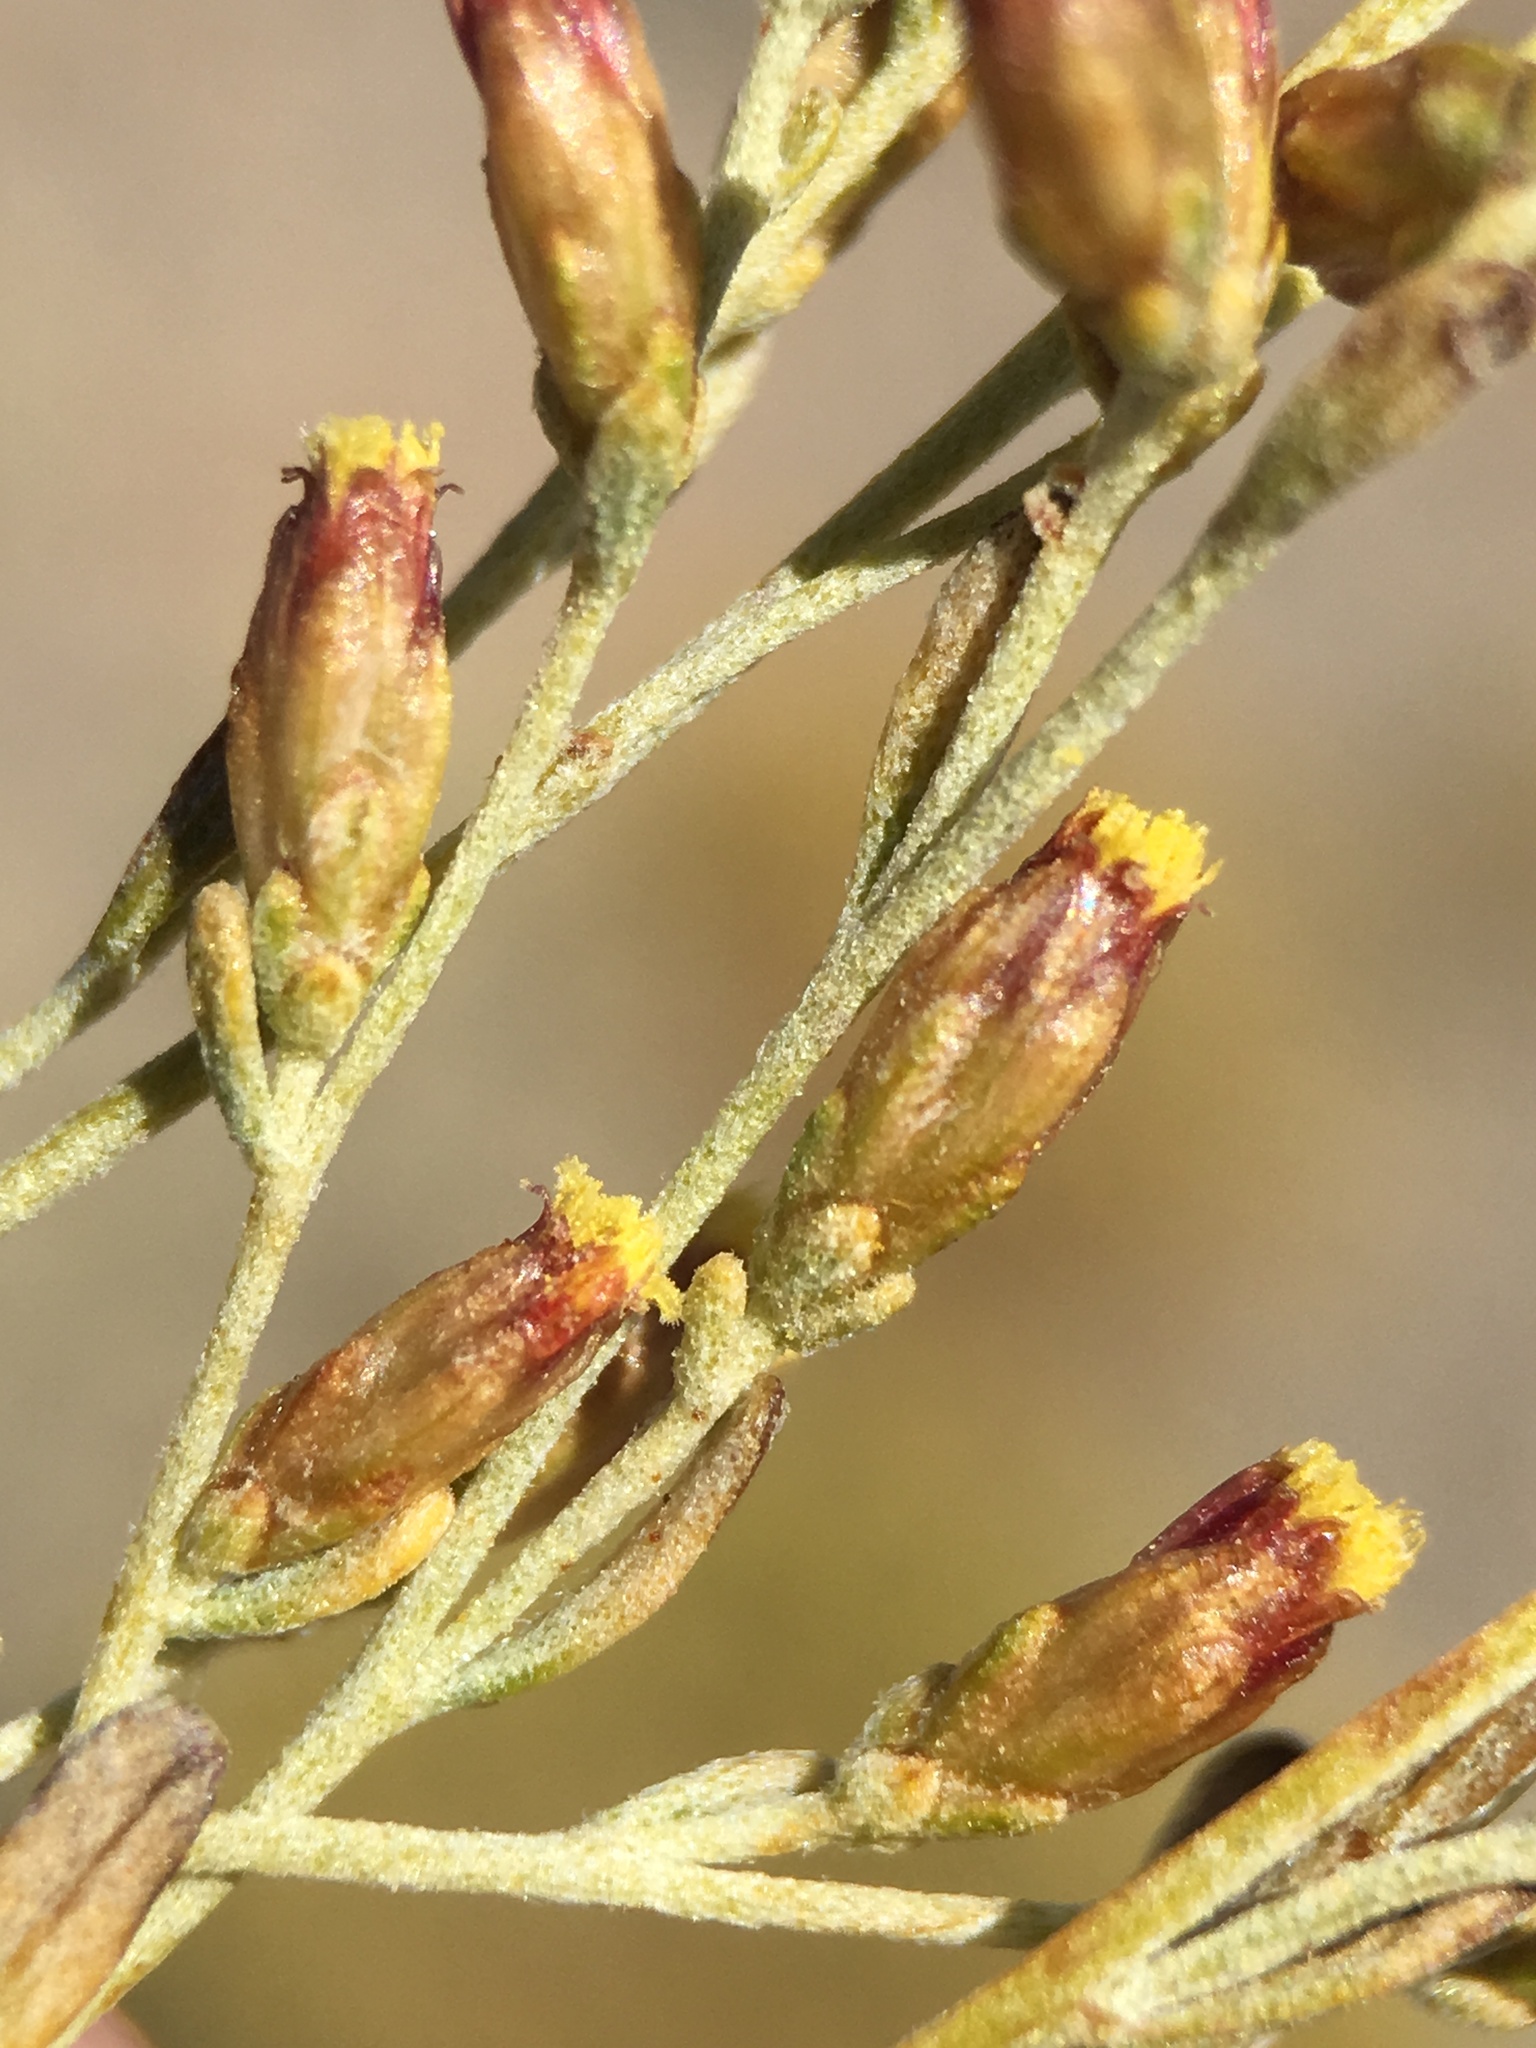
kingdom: Plantae
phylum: Tracheophyta
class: Magnoliopsida
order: Asterales
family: Asteraceae
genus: Artemisia
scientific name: Artemisia nova
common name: Black-sage
